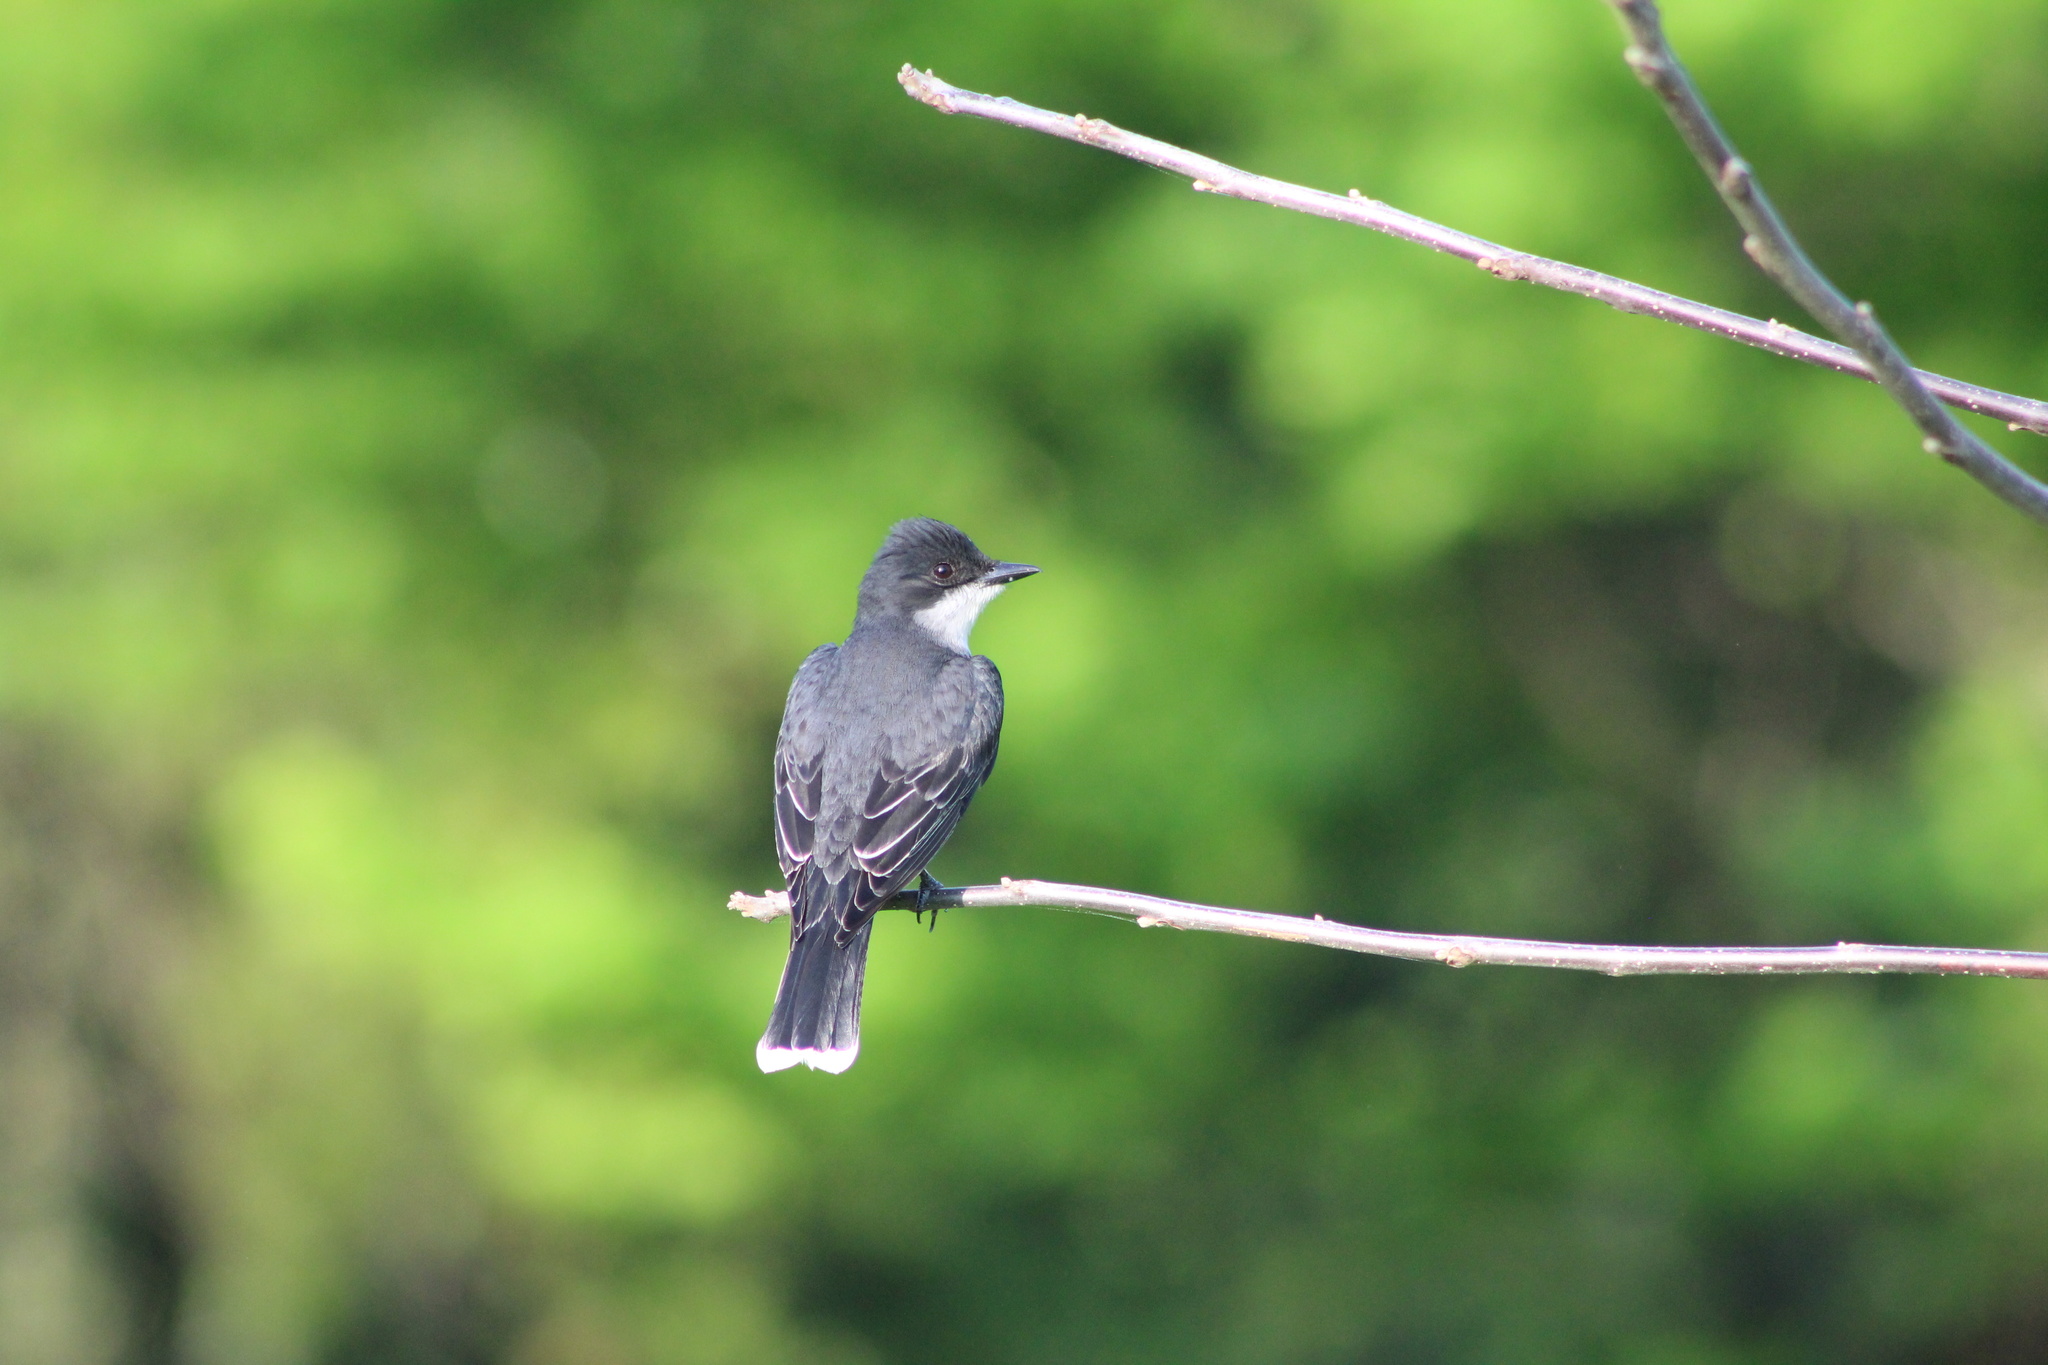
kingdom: Animalia
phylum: Chordata
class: Aves
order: Passeriformes
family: Tyrannidae
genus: Tyrannus
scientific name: Tyrannus tyrannus
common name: Eastern kingbird
